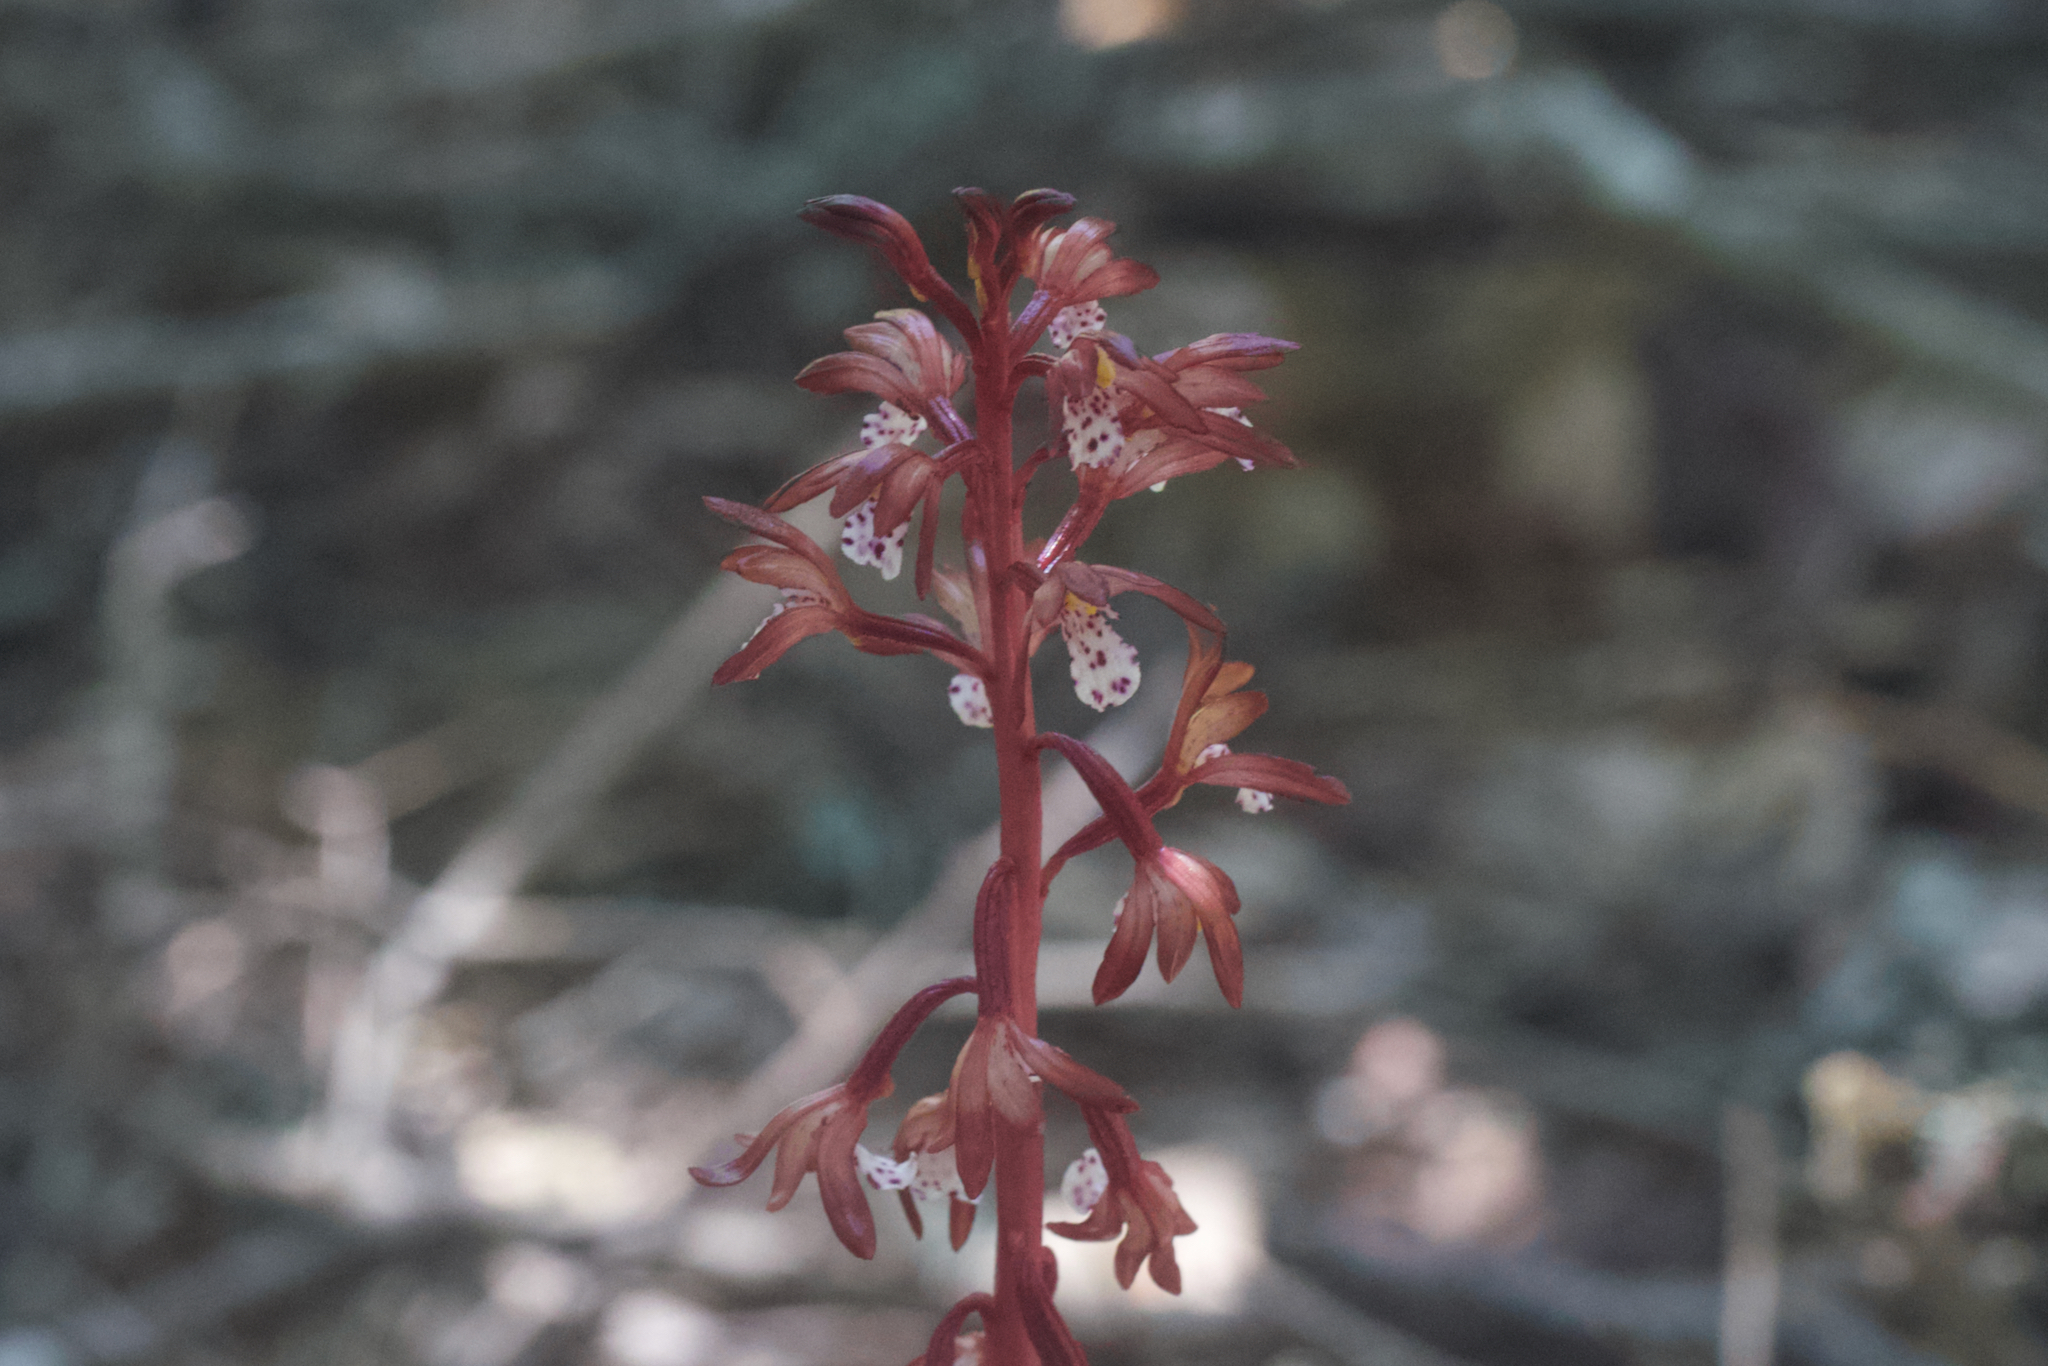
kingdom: Plantae
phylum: Tracheophyta
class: Liliopsida
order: Asparagales
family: Orchidaceae
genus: Corallorhiza
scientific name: Corallorhiza maculata
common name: Spotted coralroot
